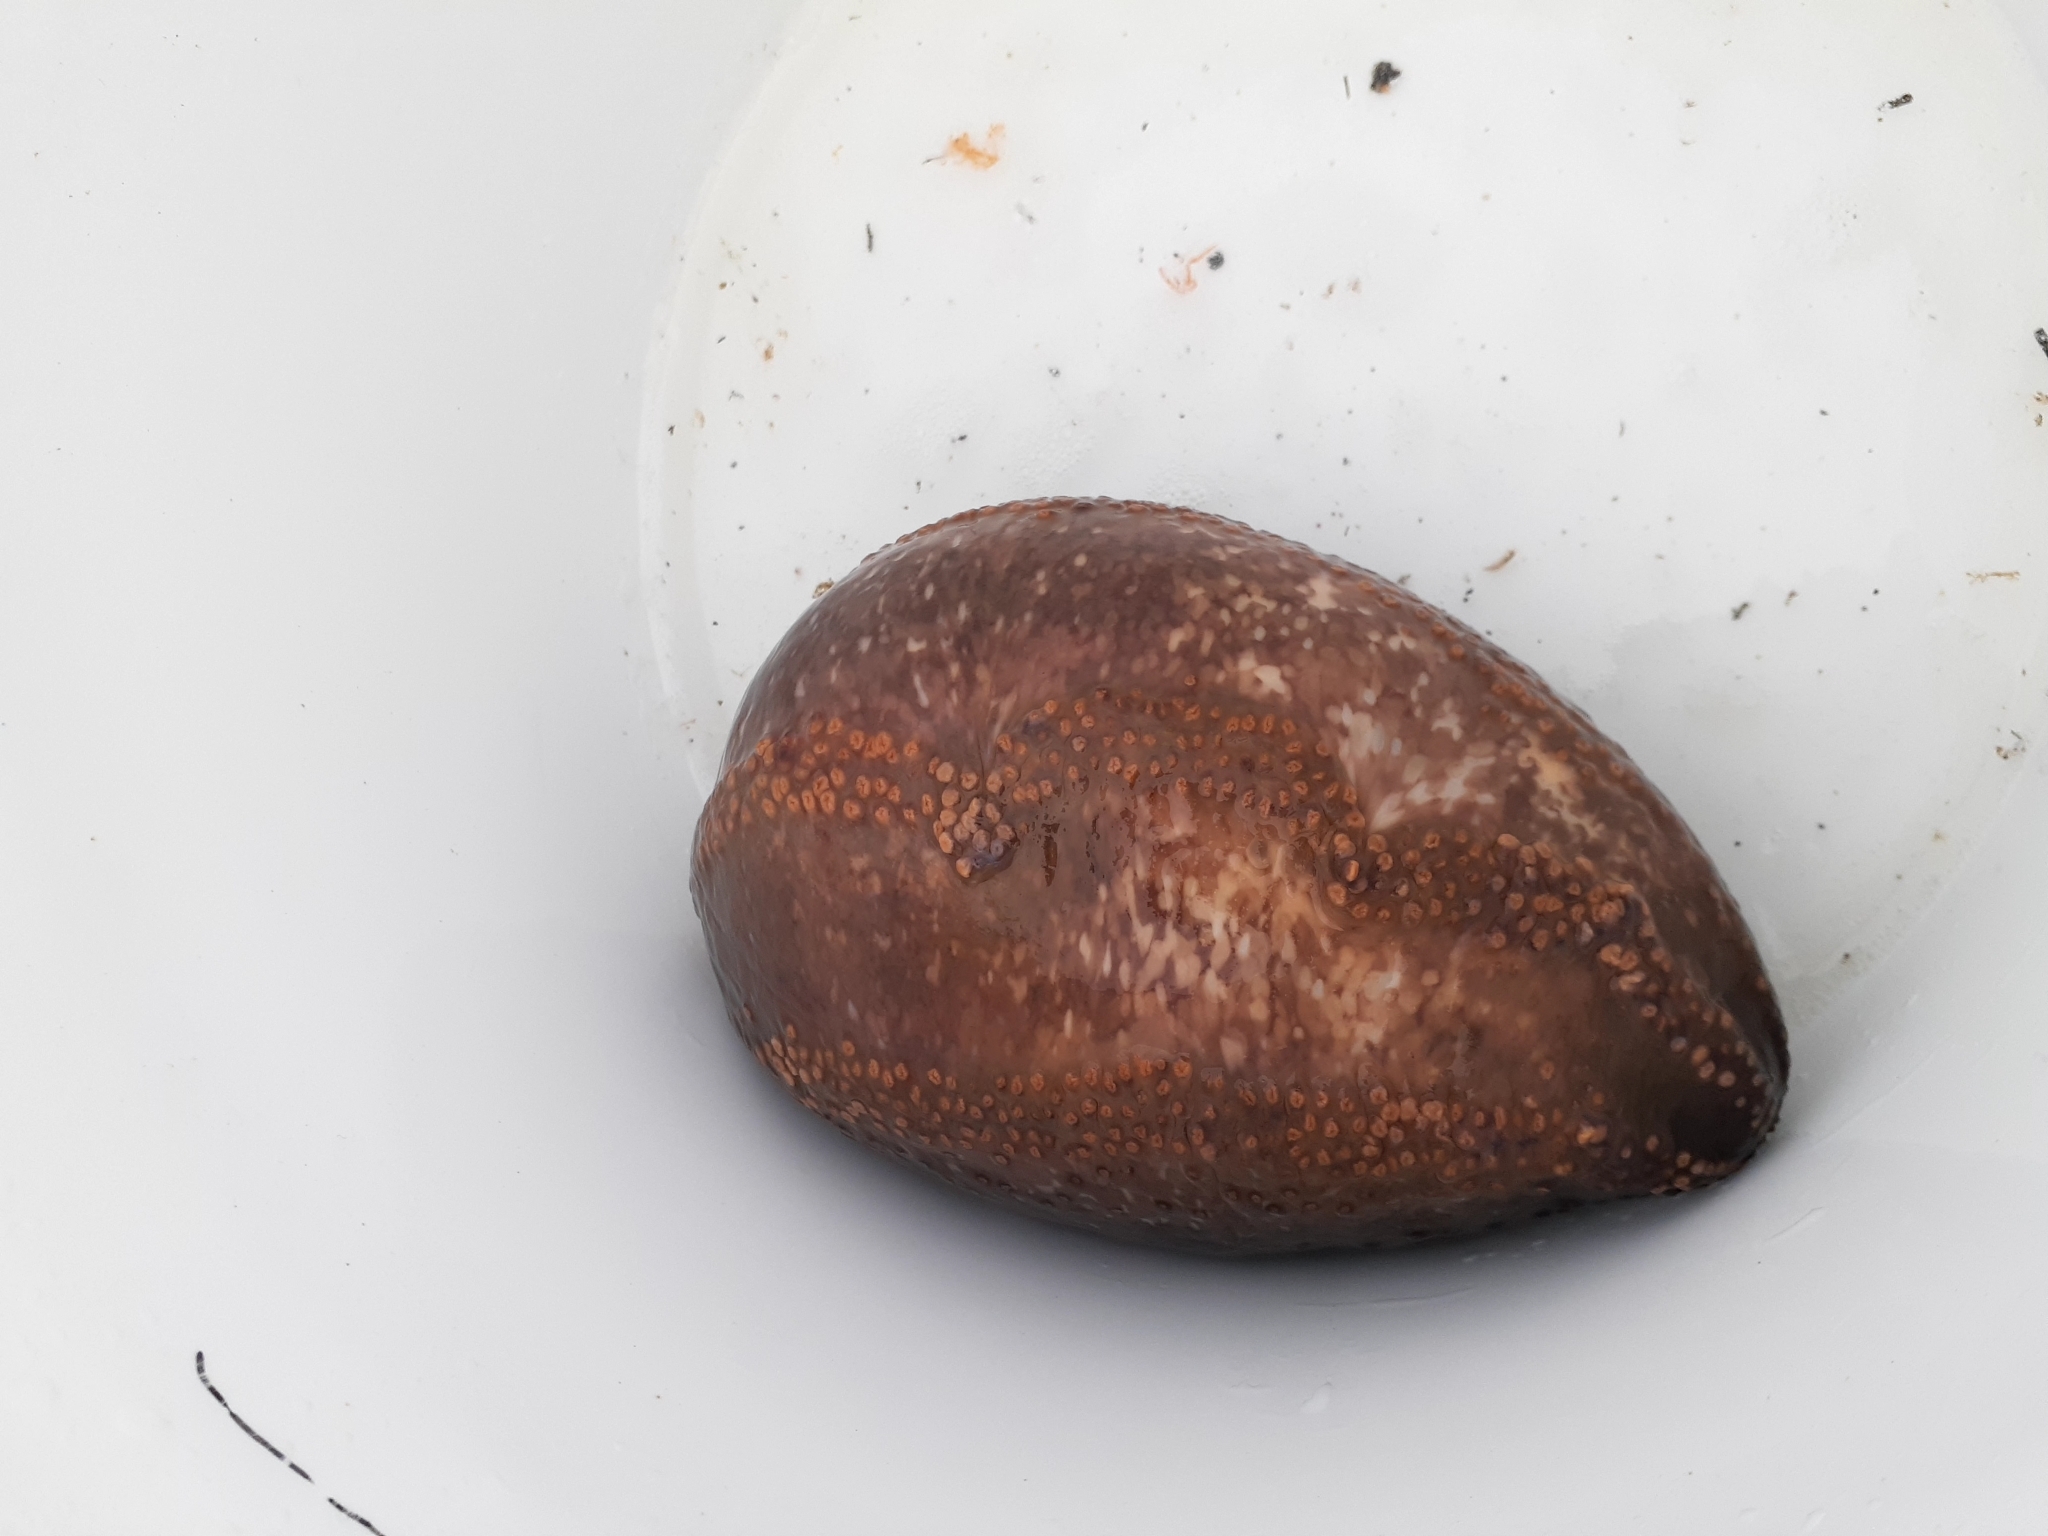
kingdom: Animalia
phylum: Echinodermata
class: Holothuroidea
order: Dendrochirotida
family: Cucumariidae
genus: Cucumaria
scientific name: Cucumaria frondosa
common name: Orange-footed sea cucumber
